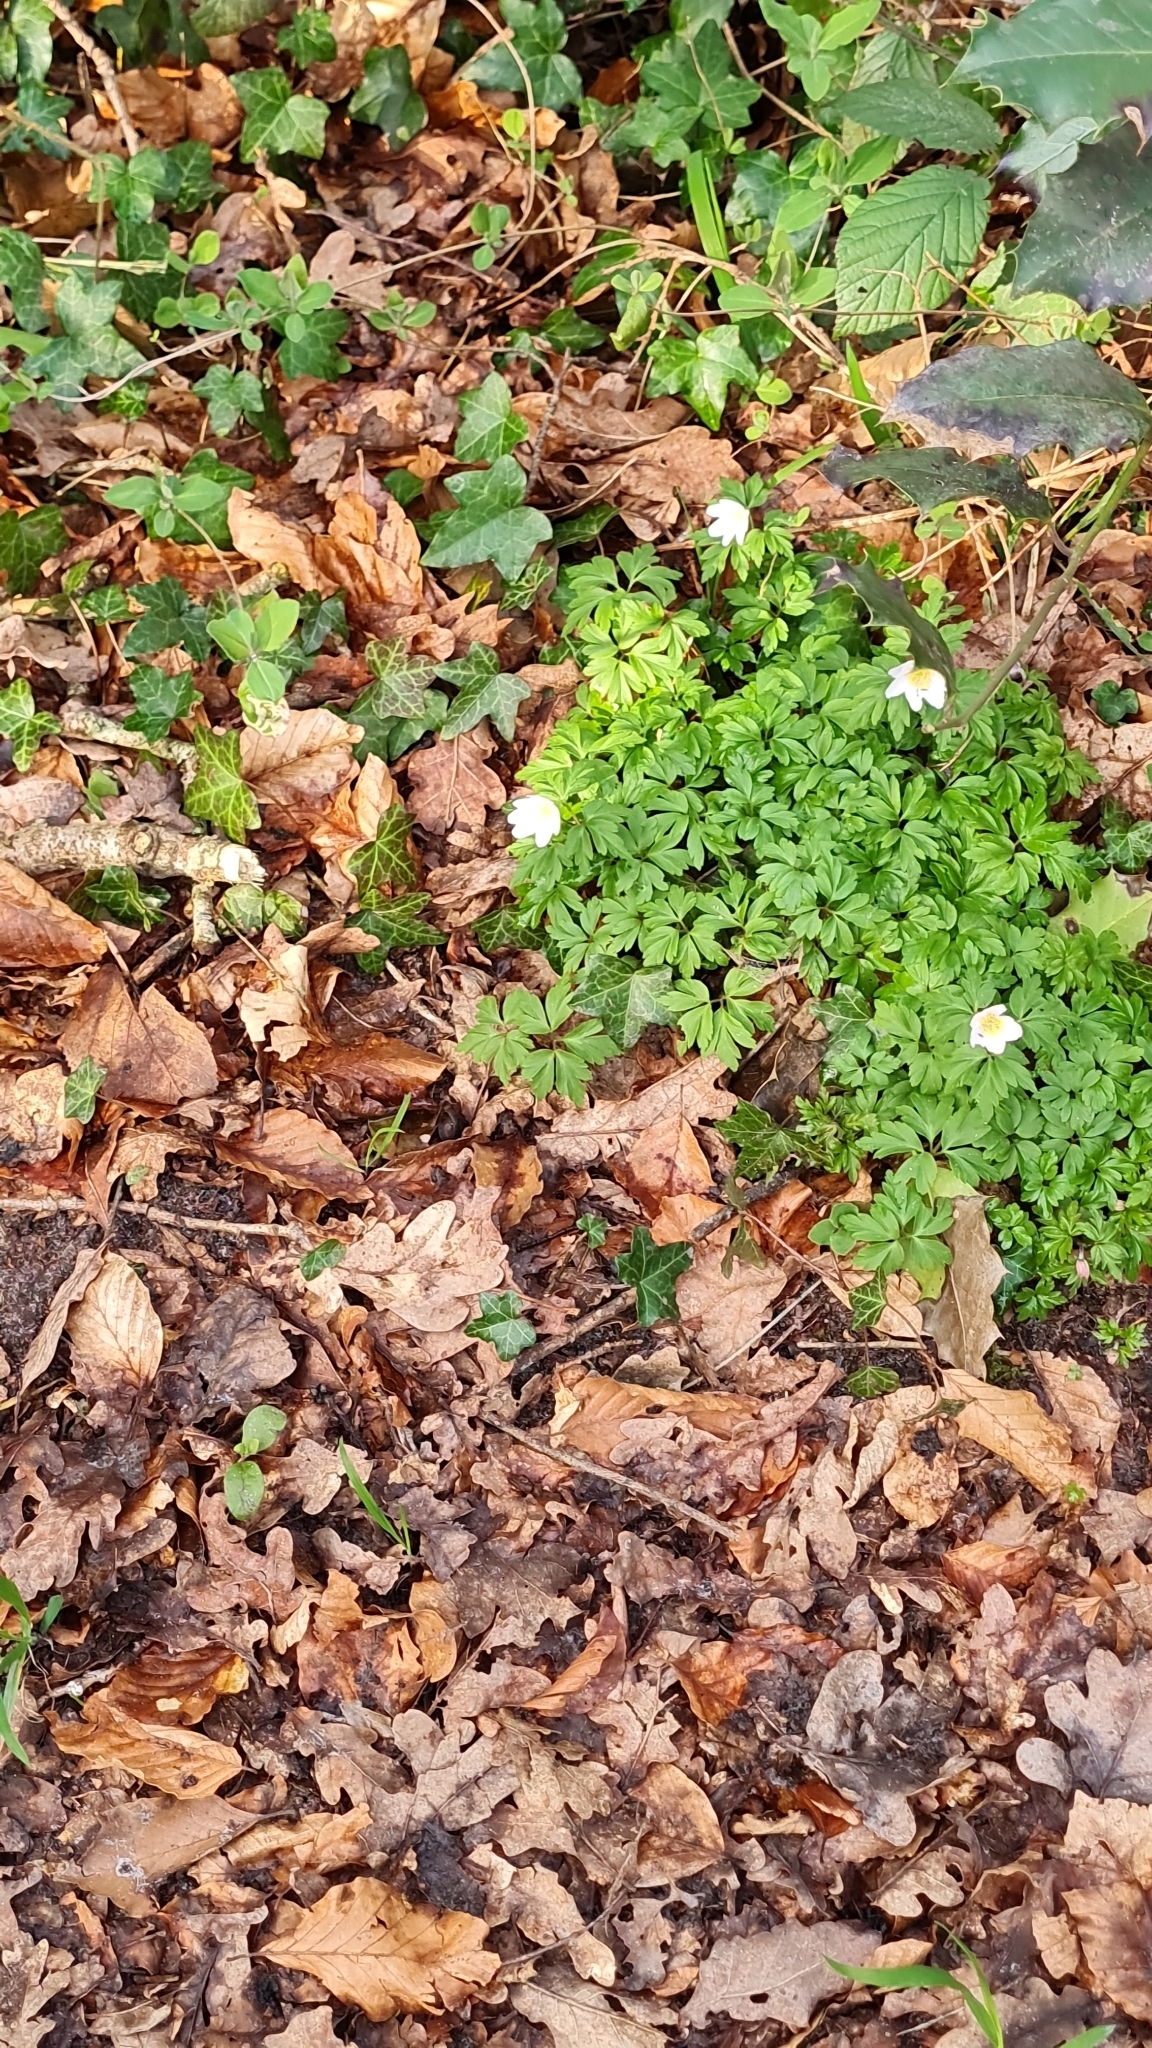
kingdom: Plantae
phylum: Tracheophyta
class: Magnoliopsida
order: Ranunculales
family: Ranunculaceae
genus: Anemone
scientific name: Anemone nemorosa
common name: Wood anemone
